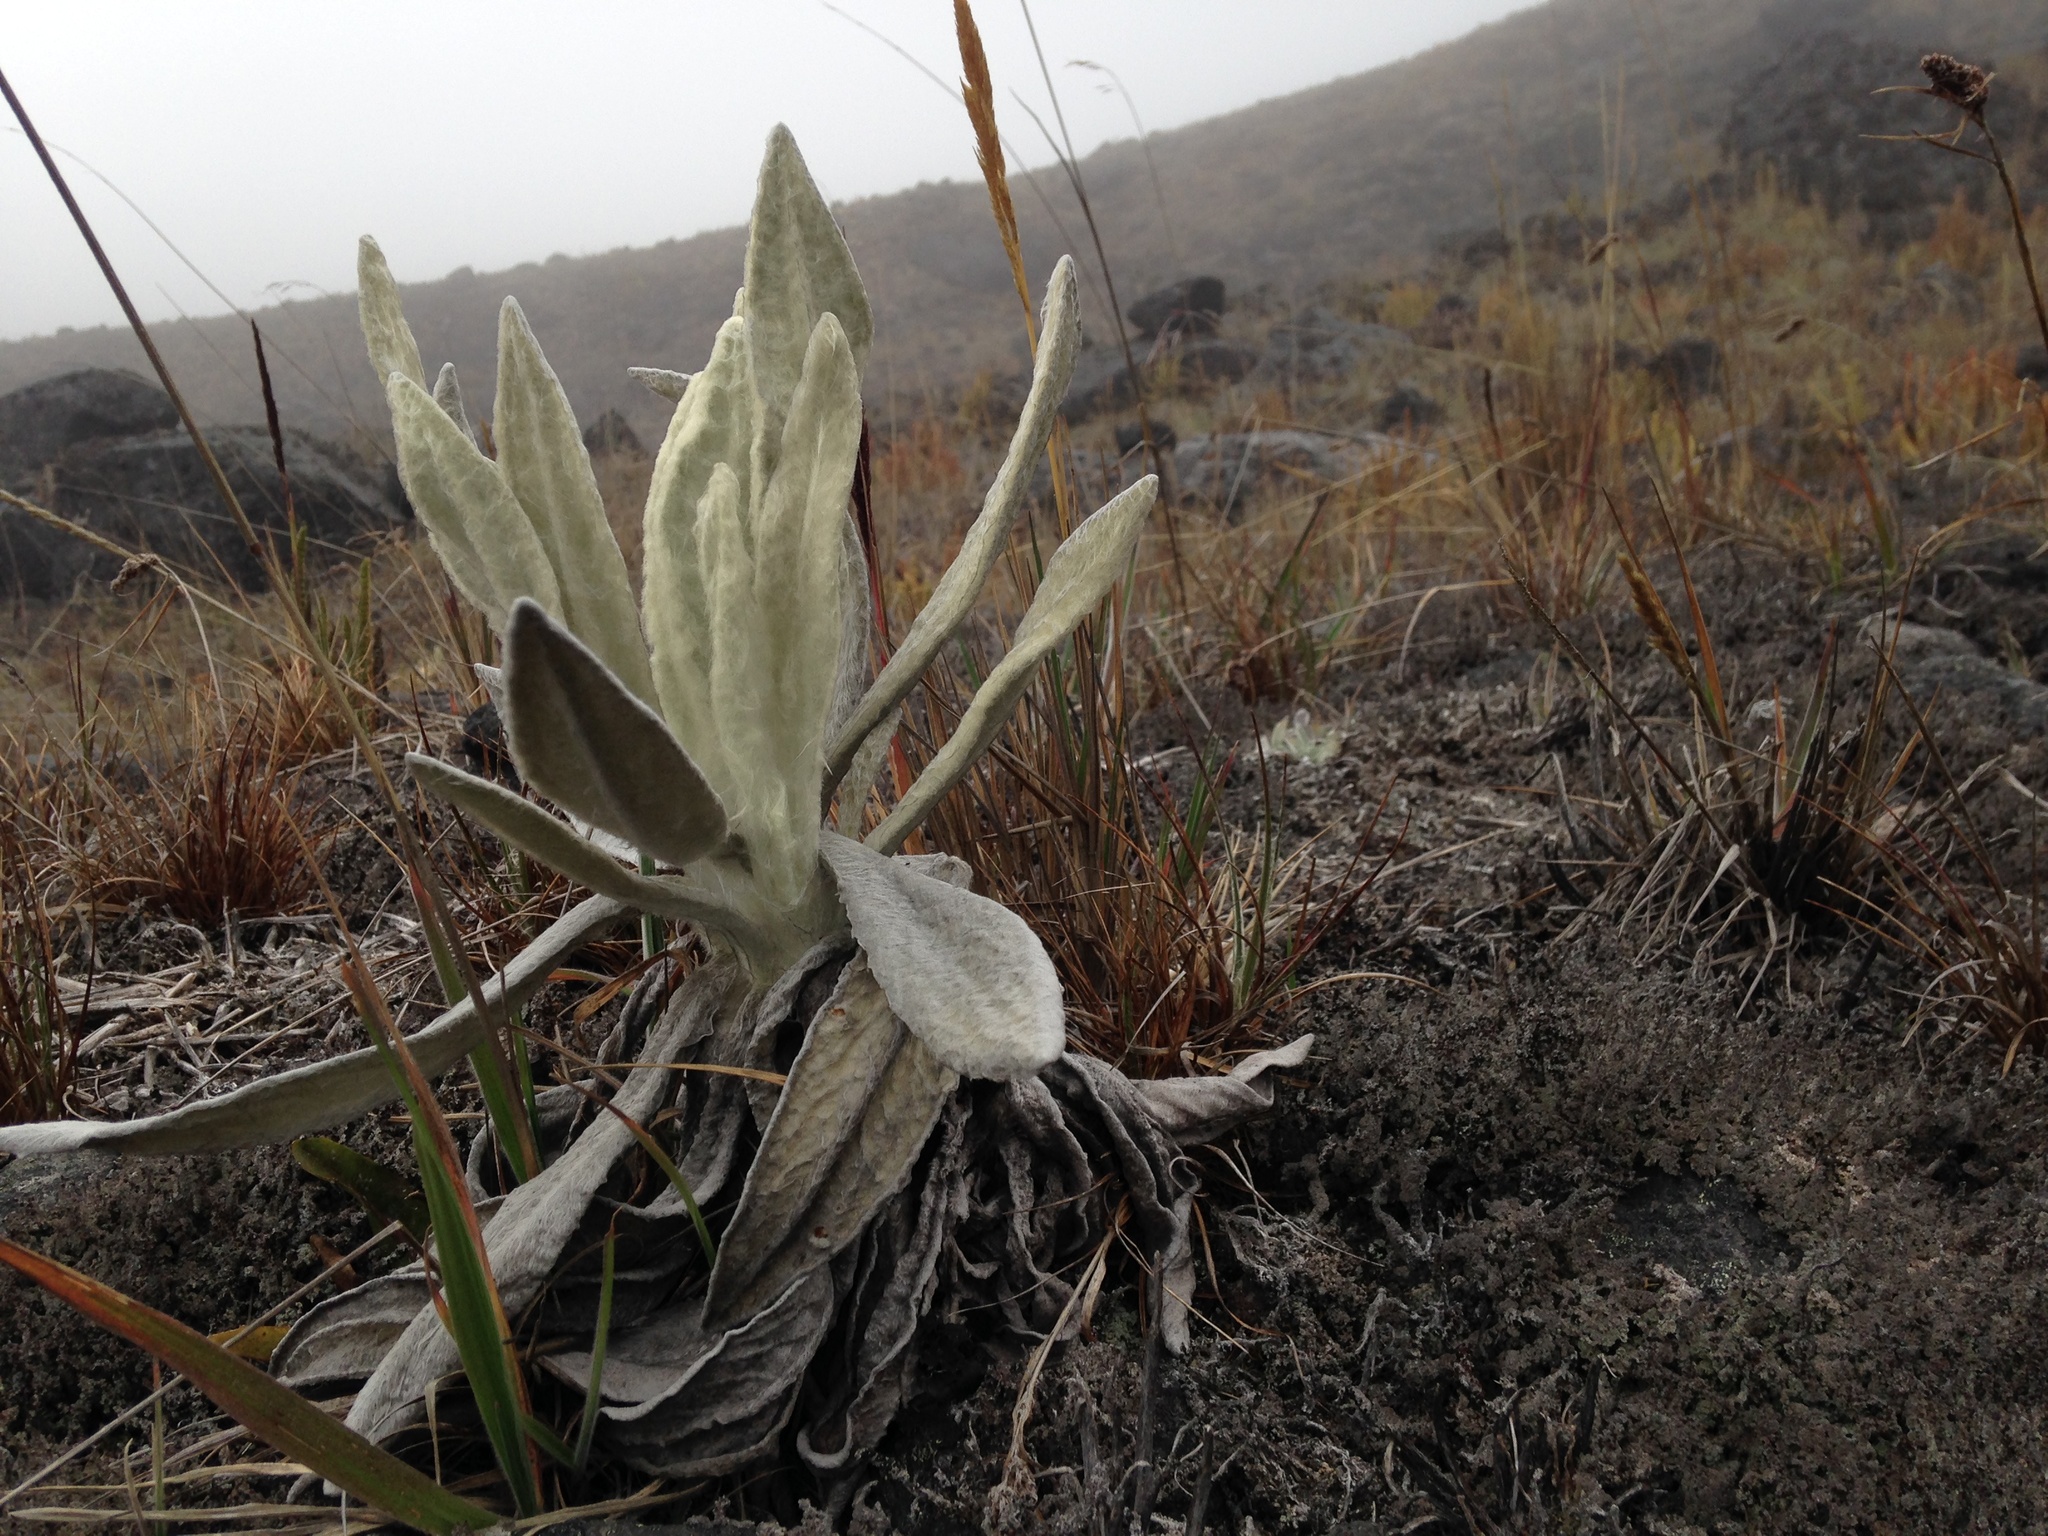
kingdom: Plantae
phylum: Tracheophyta
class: Magnoliopsida
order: Asterales
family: Asteraceae
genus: Espeletia
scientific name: Espeletia hartwegiana
